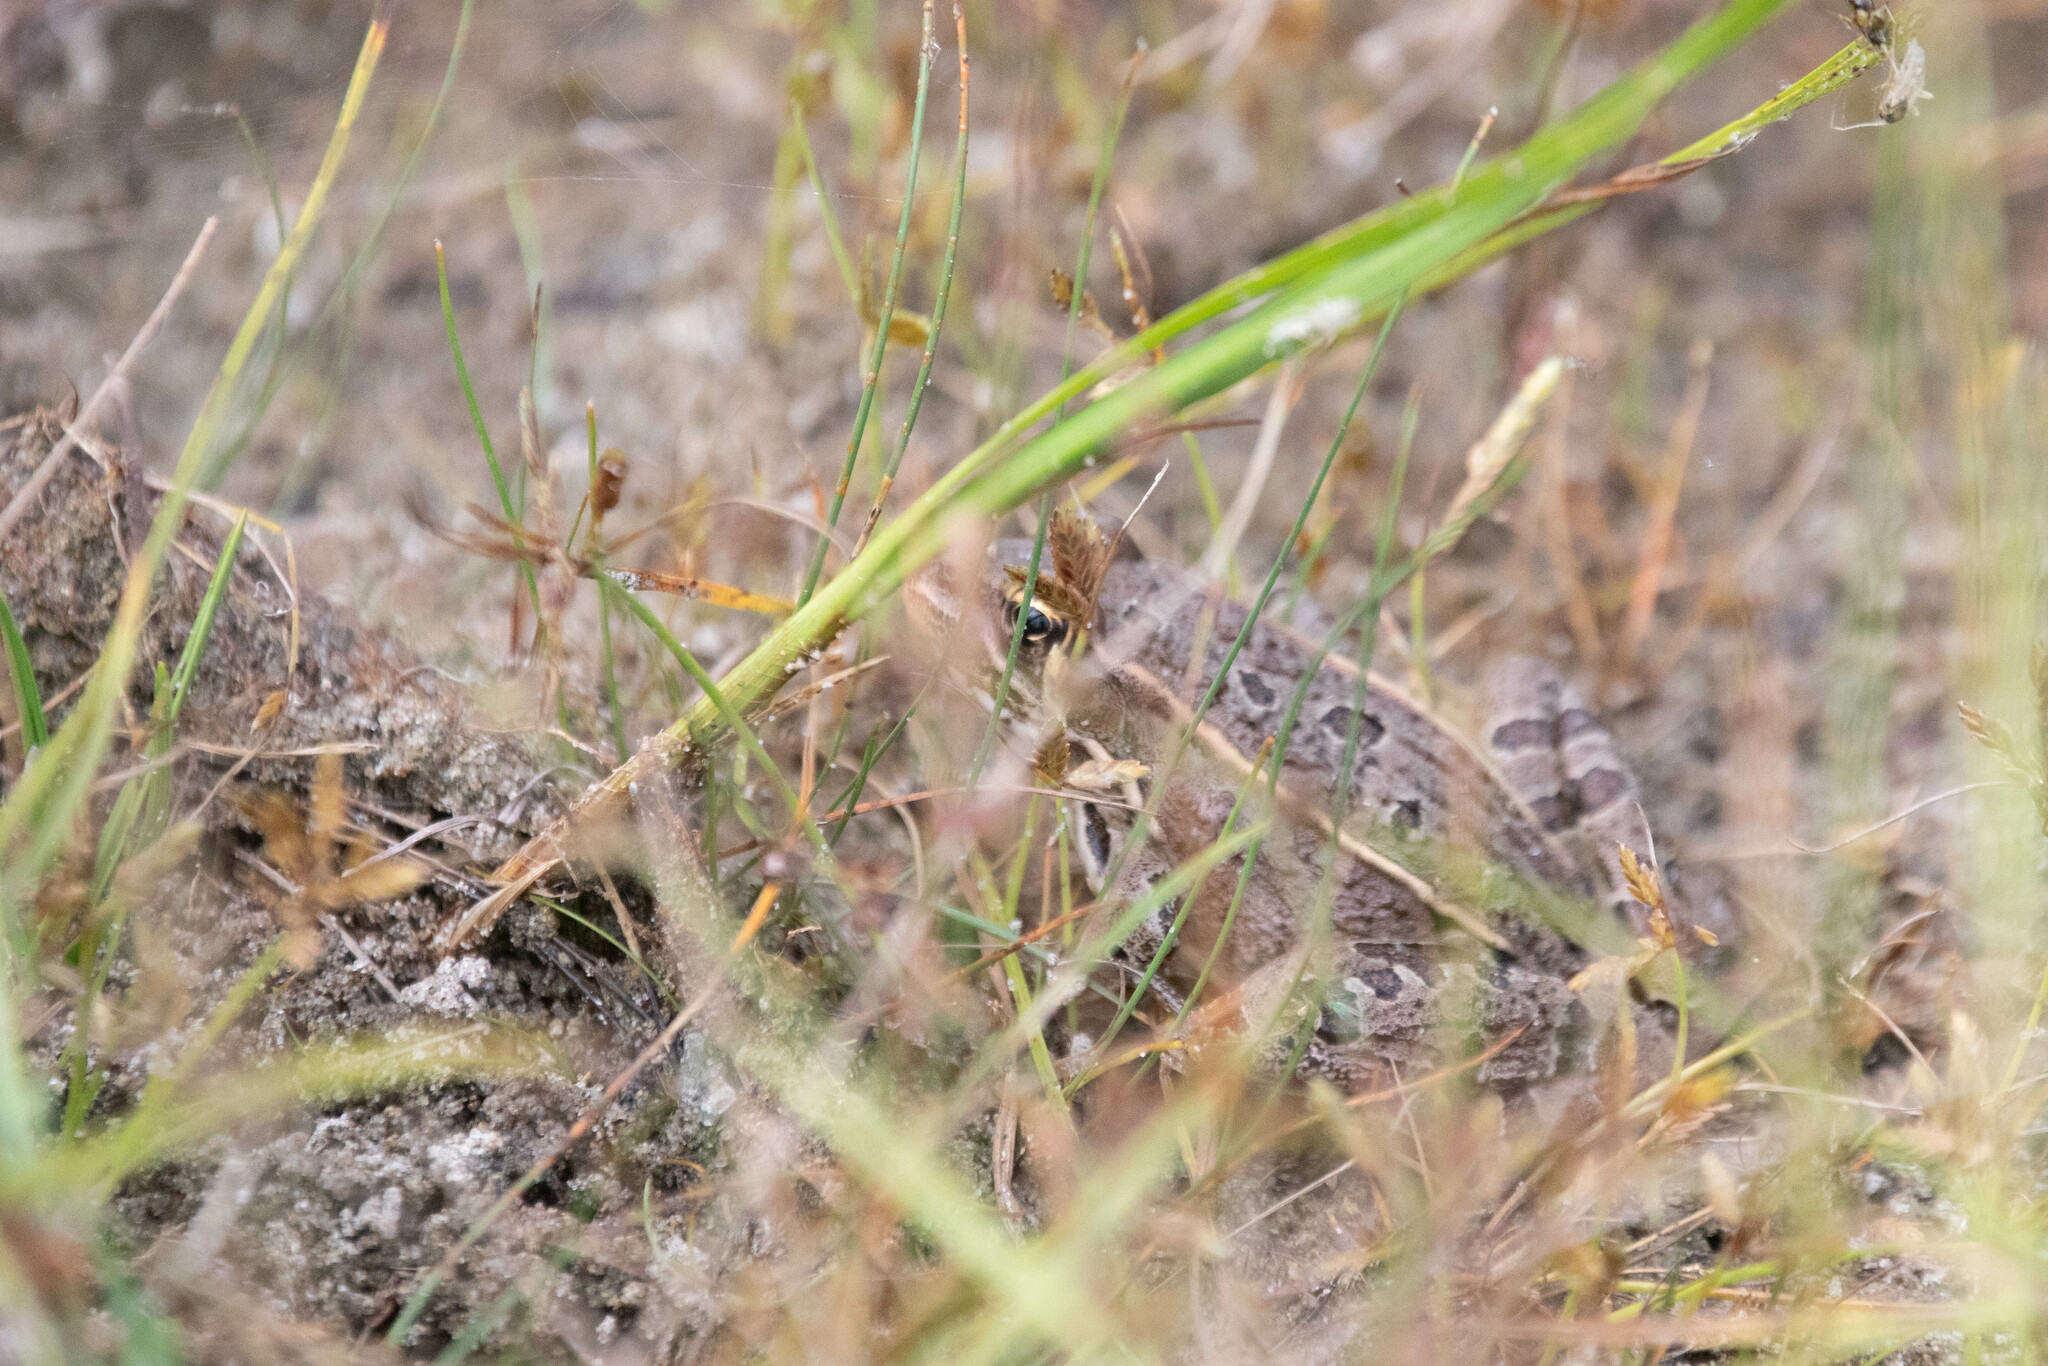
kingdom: Animalia
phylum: Chordata
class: Amphibia
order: Anura
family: Ranidae
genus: Lithobates
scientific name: Lithobates pipiens
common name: Northern leopard frog
